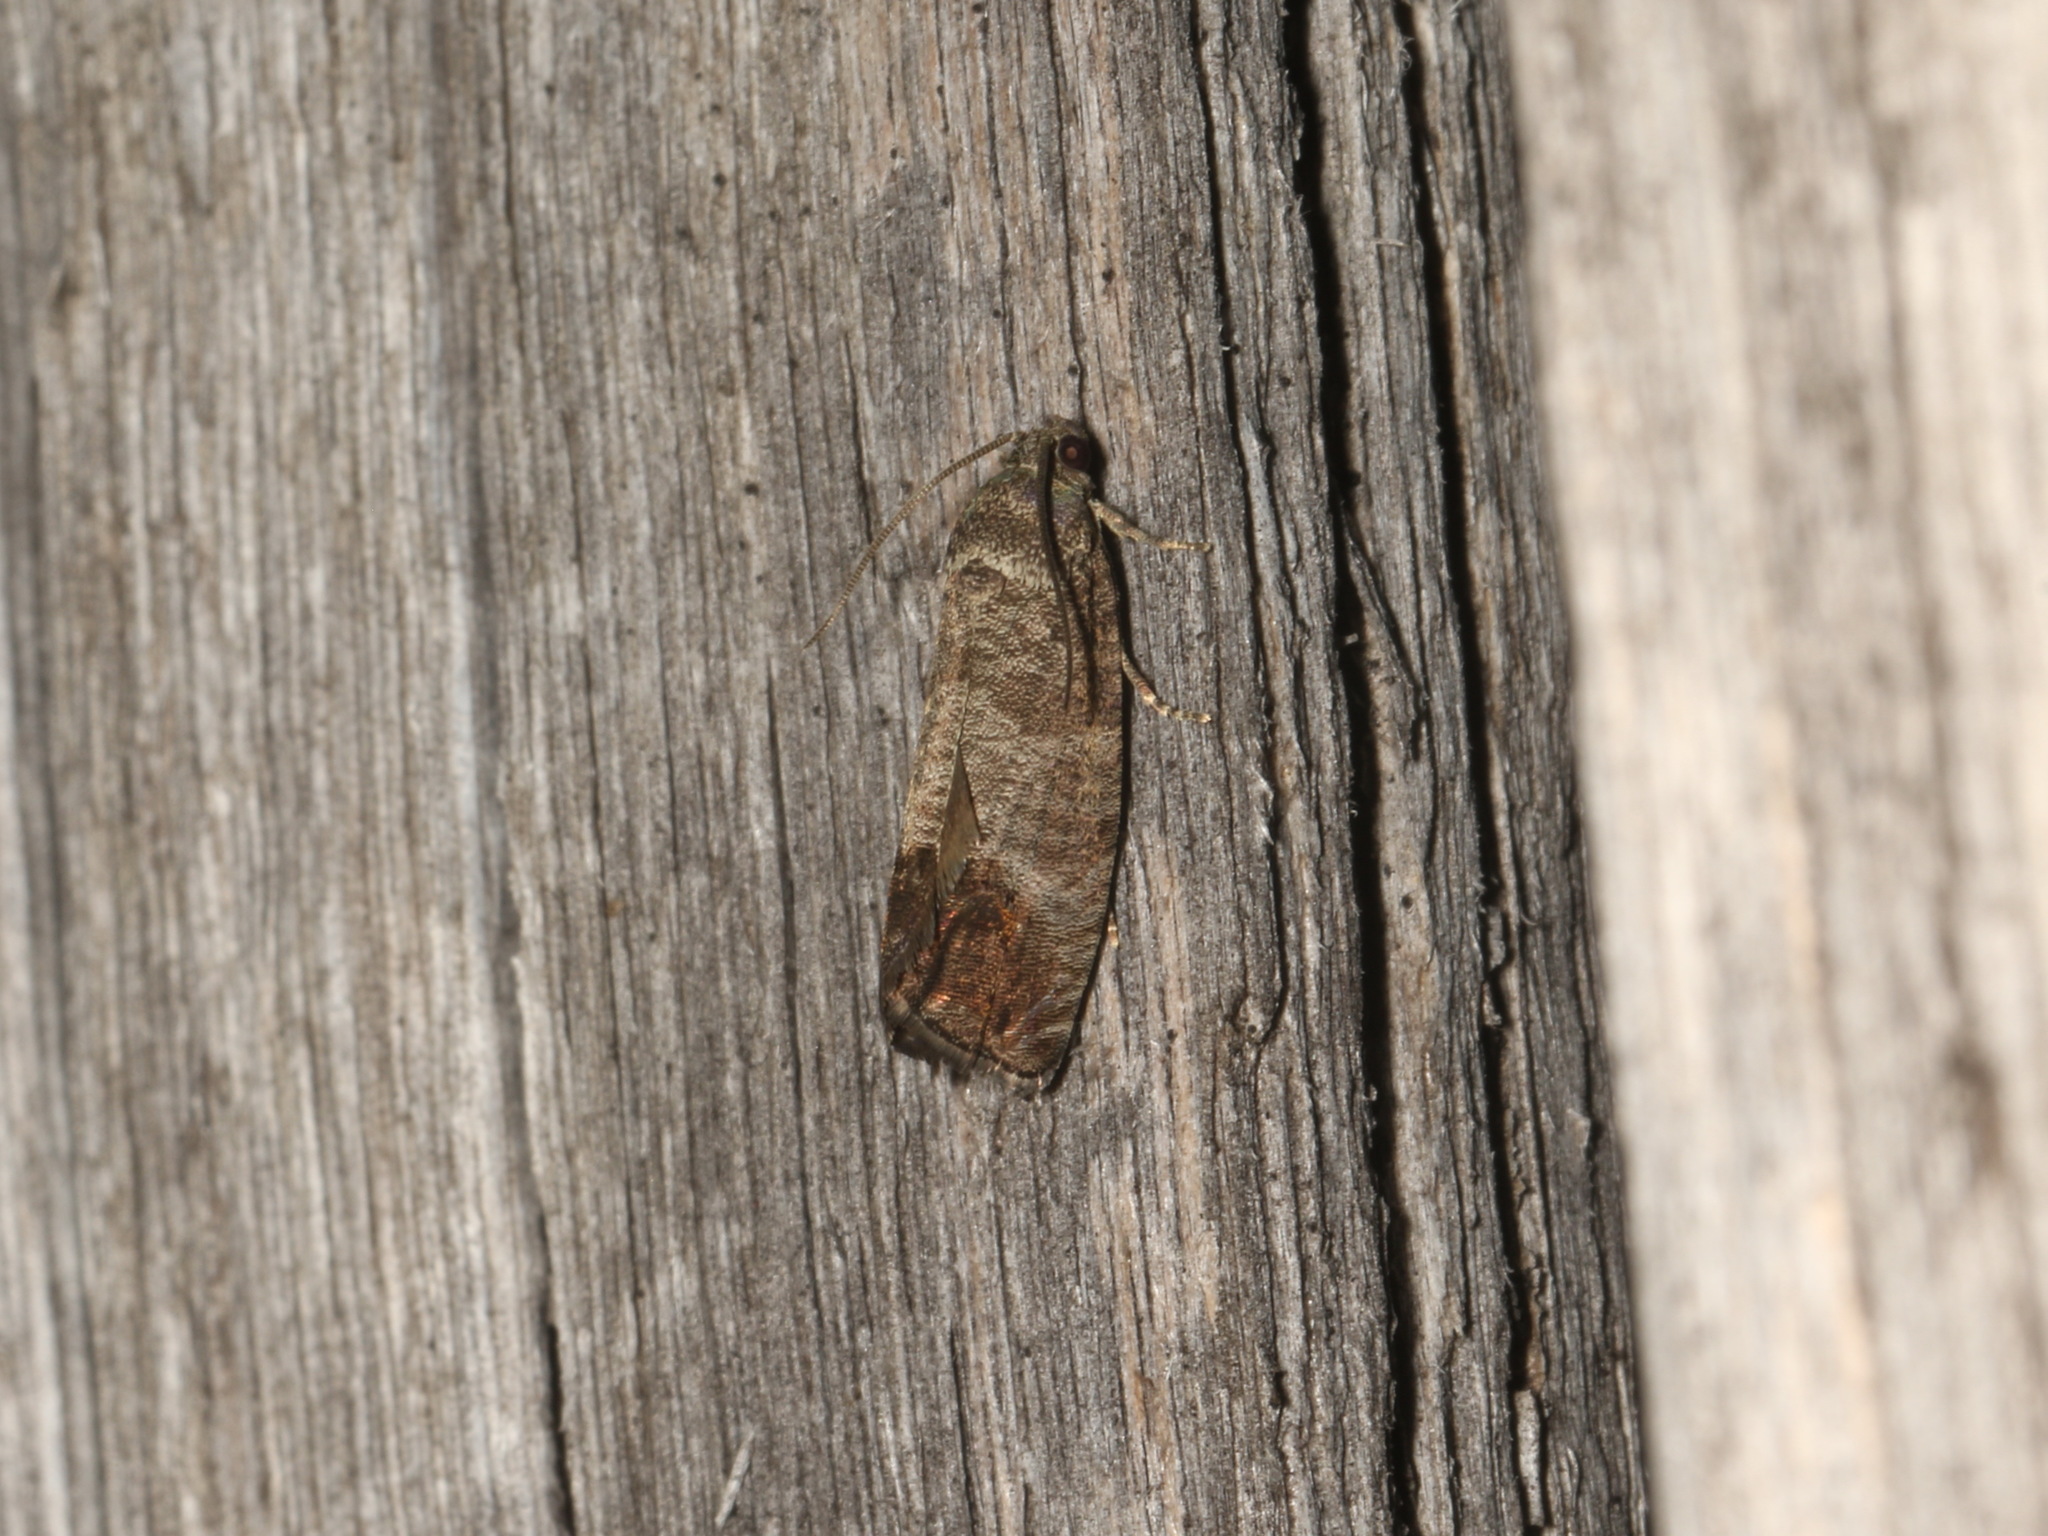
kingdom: Animalia
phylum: Arthropoda
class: Insecta
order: Lepidoptera
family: Tortricidae
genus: Cydia
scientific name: Cydia pomonella
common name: Codling moth
